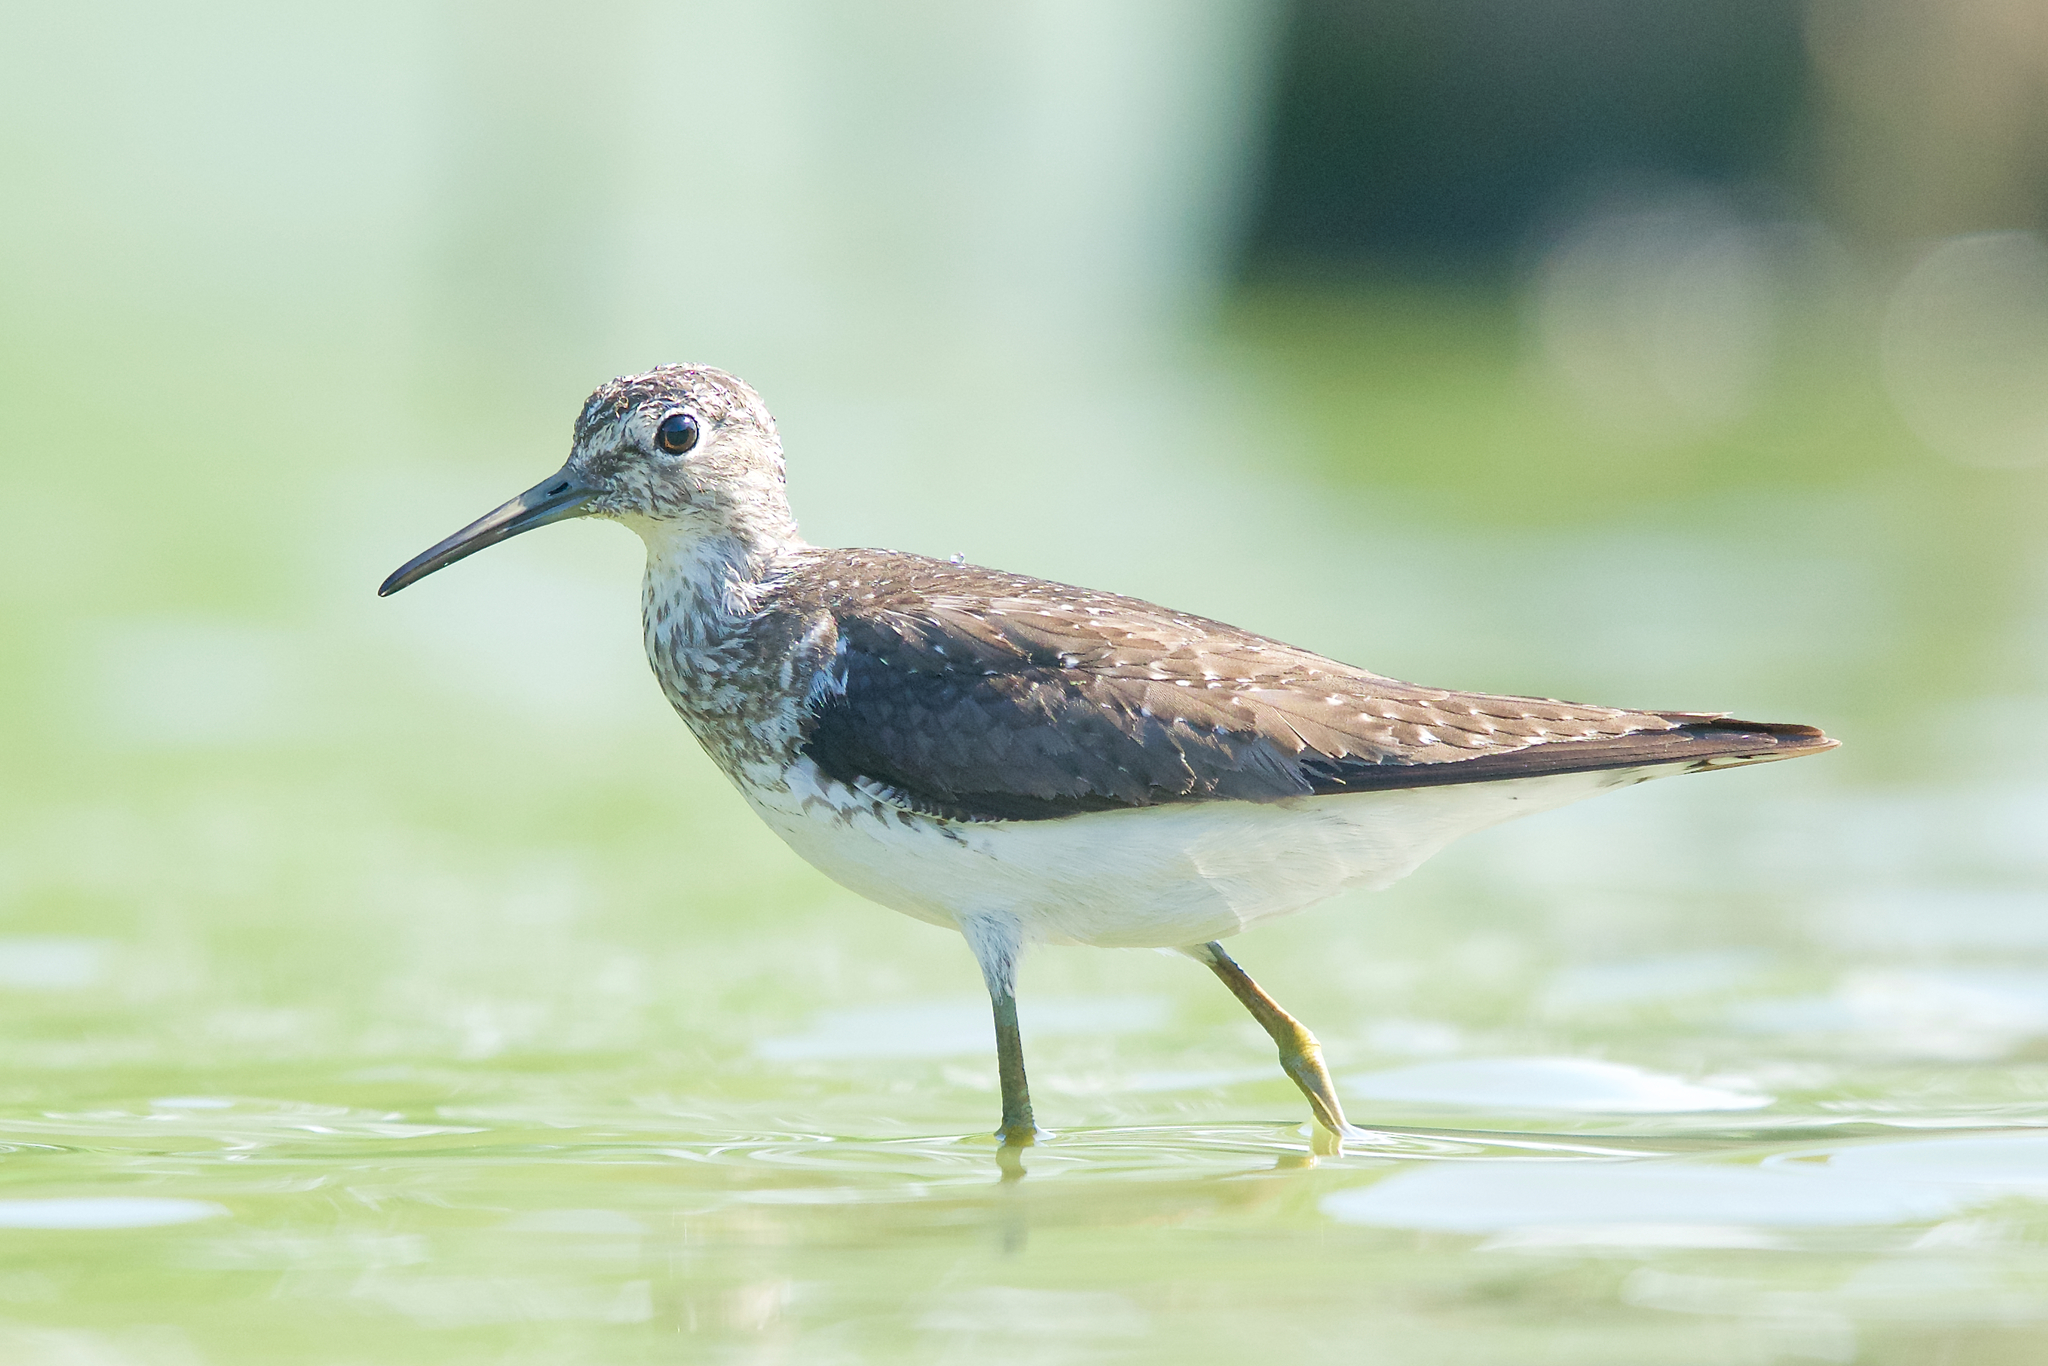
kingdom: Animalia
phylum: Chordata
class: Aves
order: Charadriiformes
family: Scolopacidae
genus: Tringa
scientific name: Tringa solitaria
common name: Solitary sandpiper
